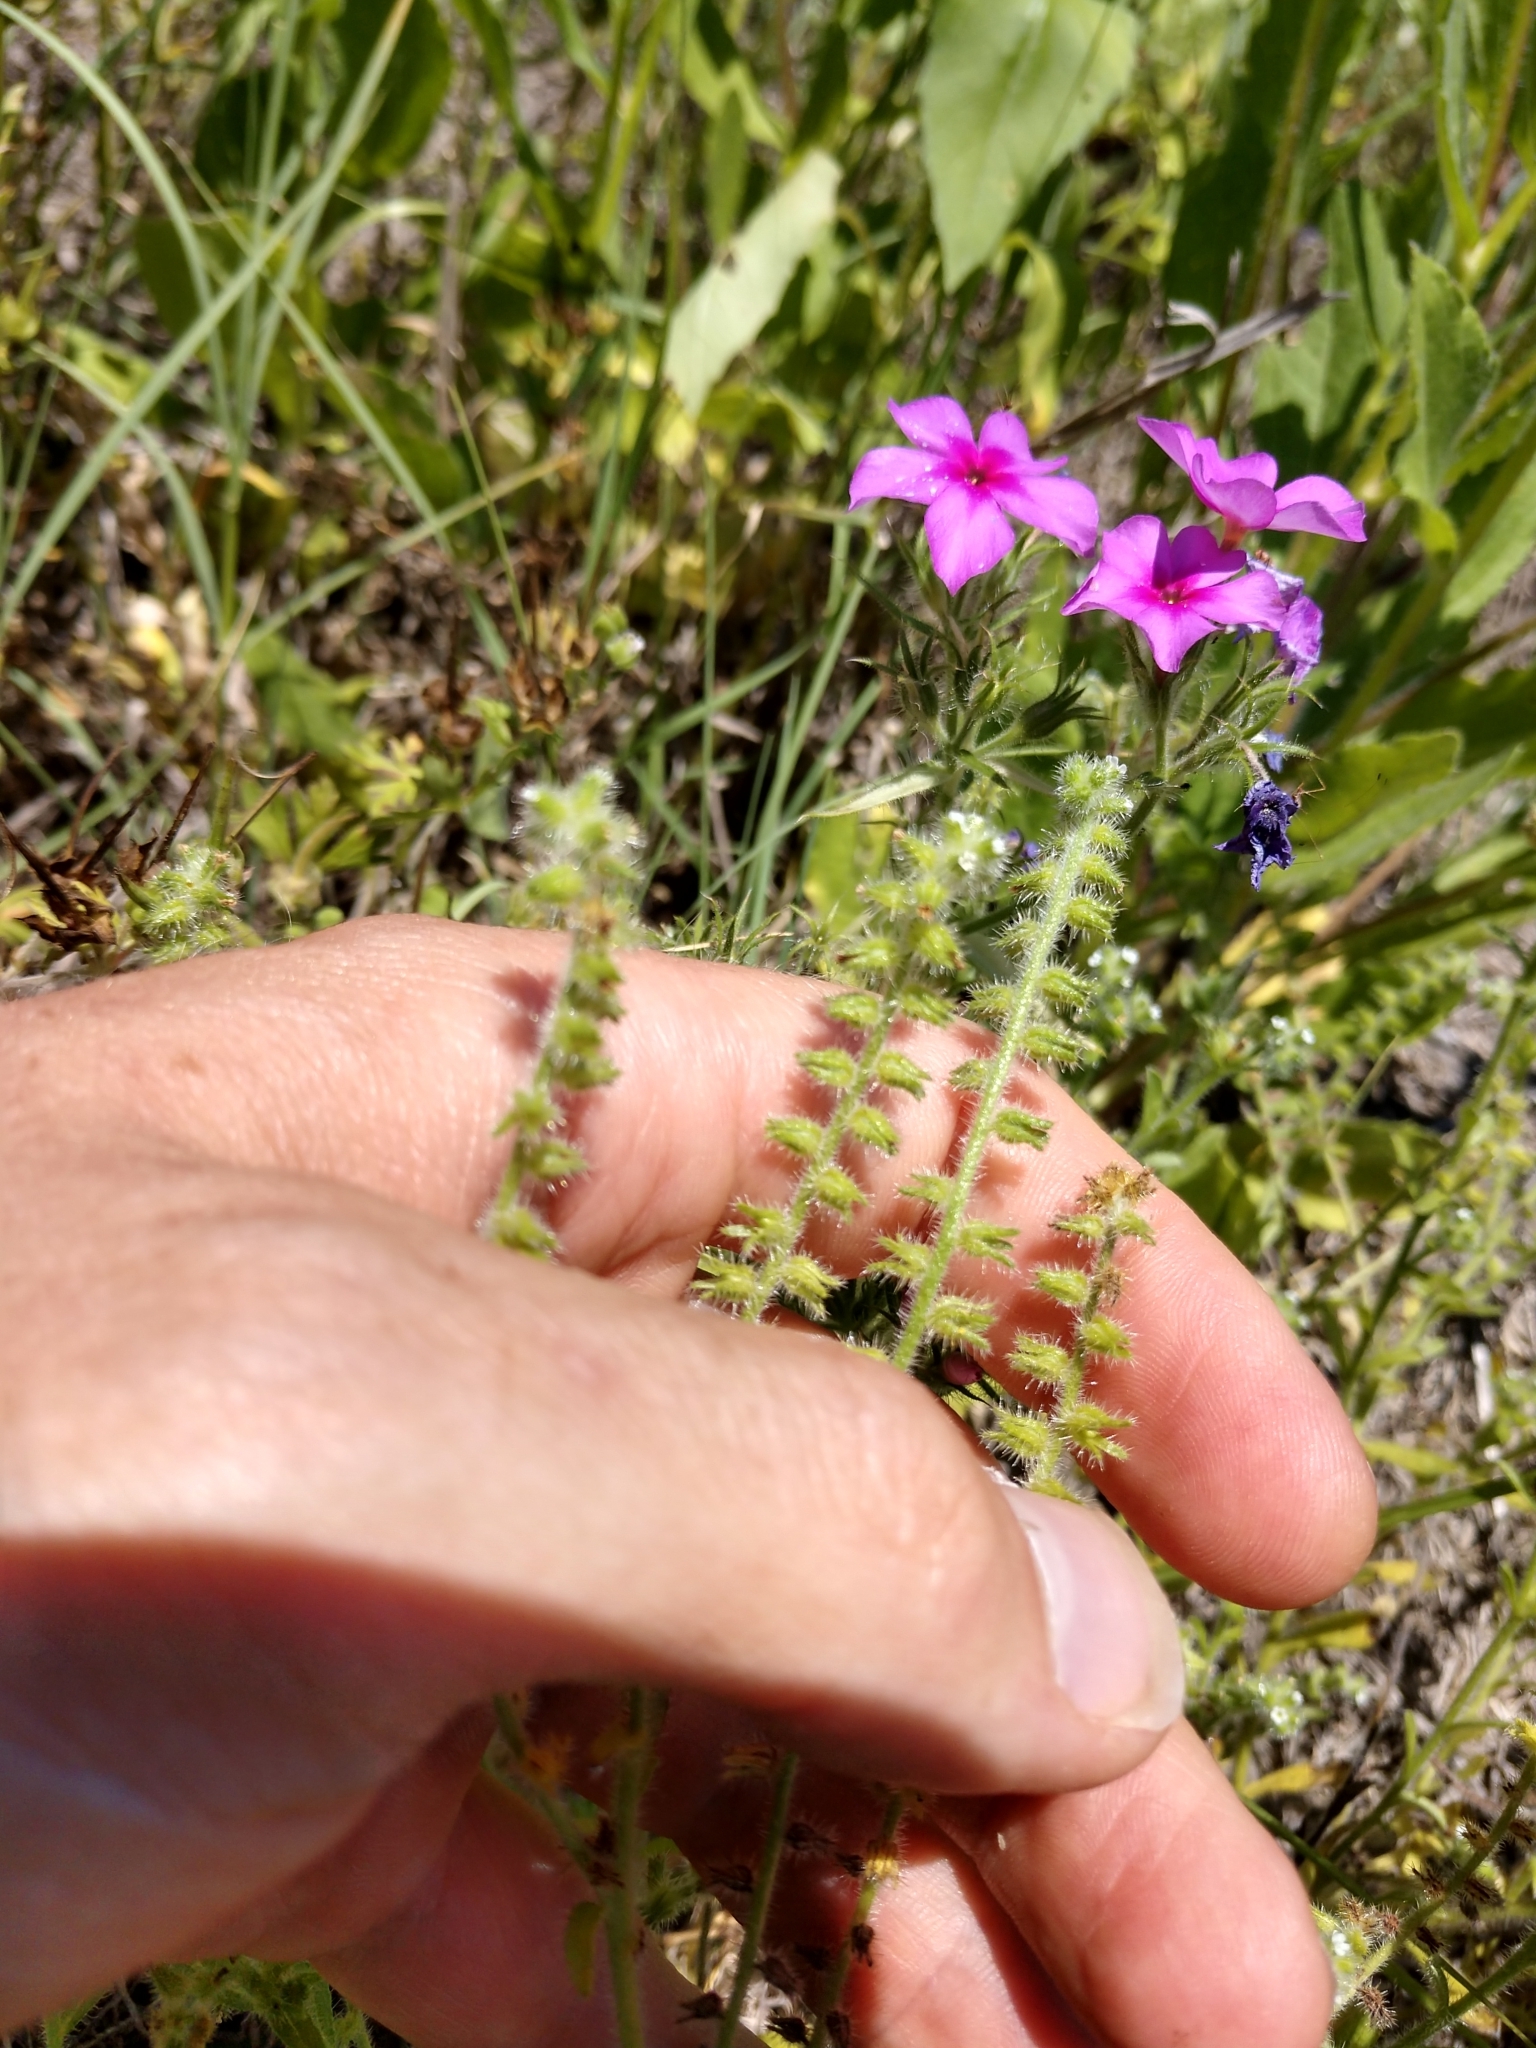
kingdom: Plantae
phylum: Tracheophyta
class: Magnoliopsida
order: Boraginales
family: Boraginaceae
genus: Cryptantha
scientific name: Cryptantha texana
